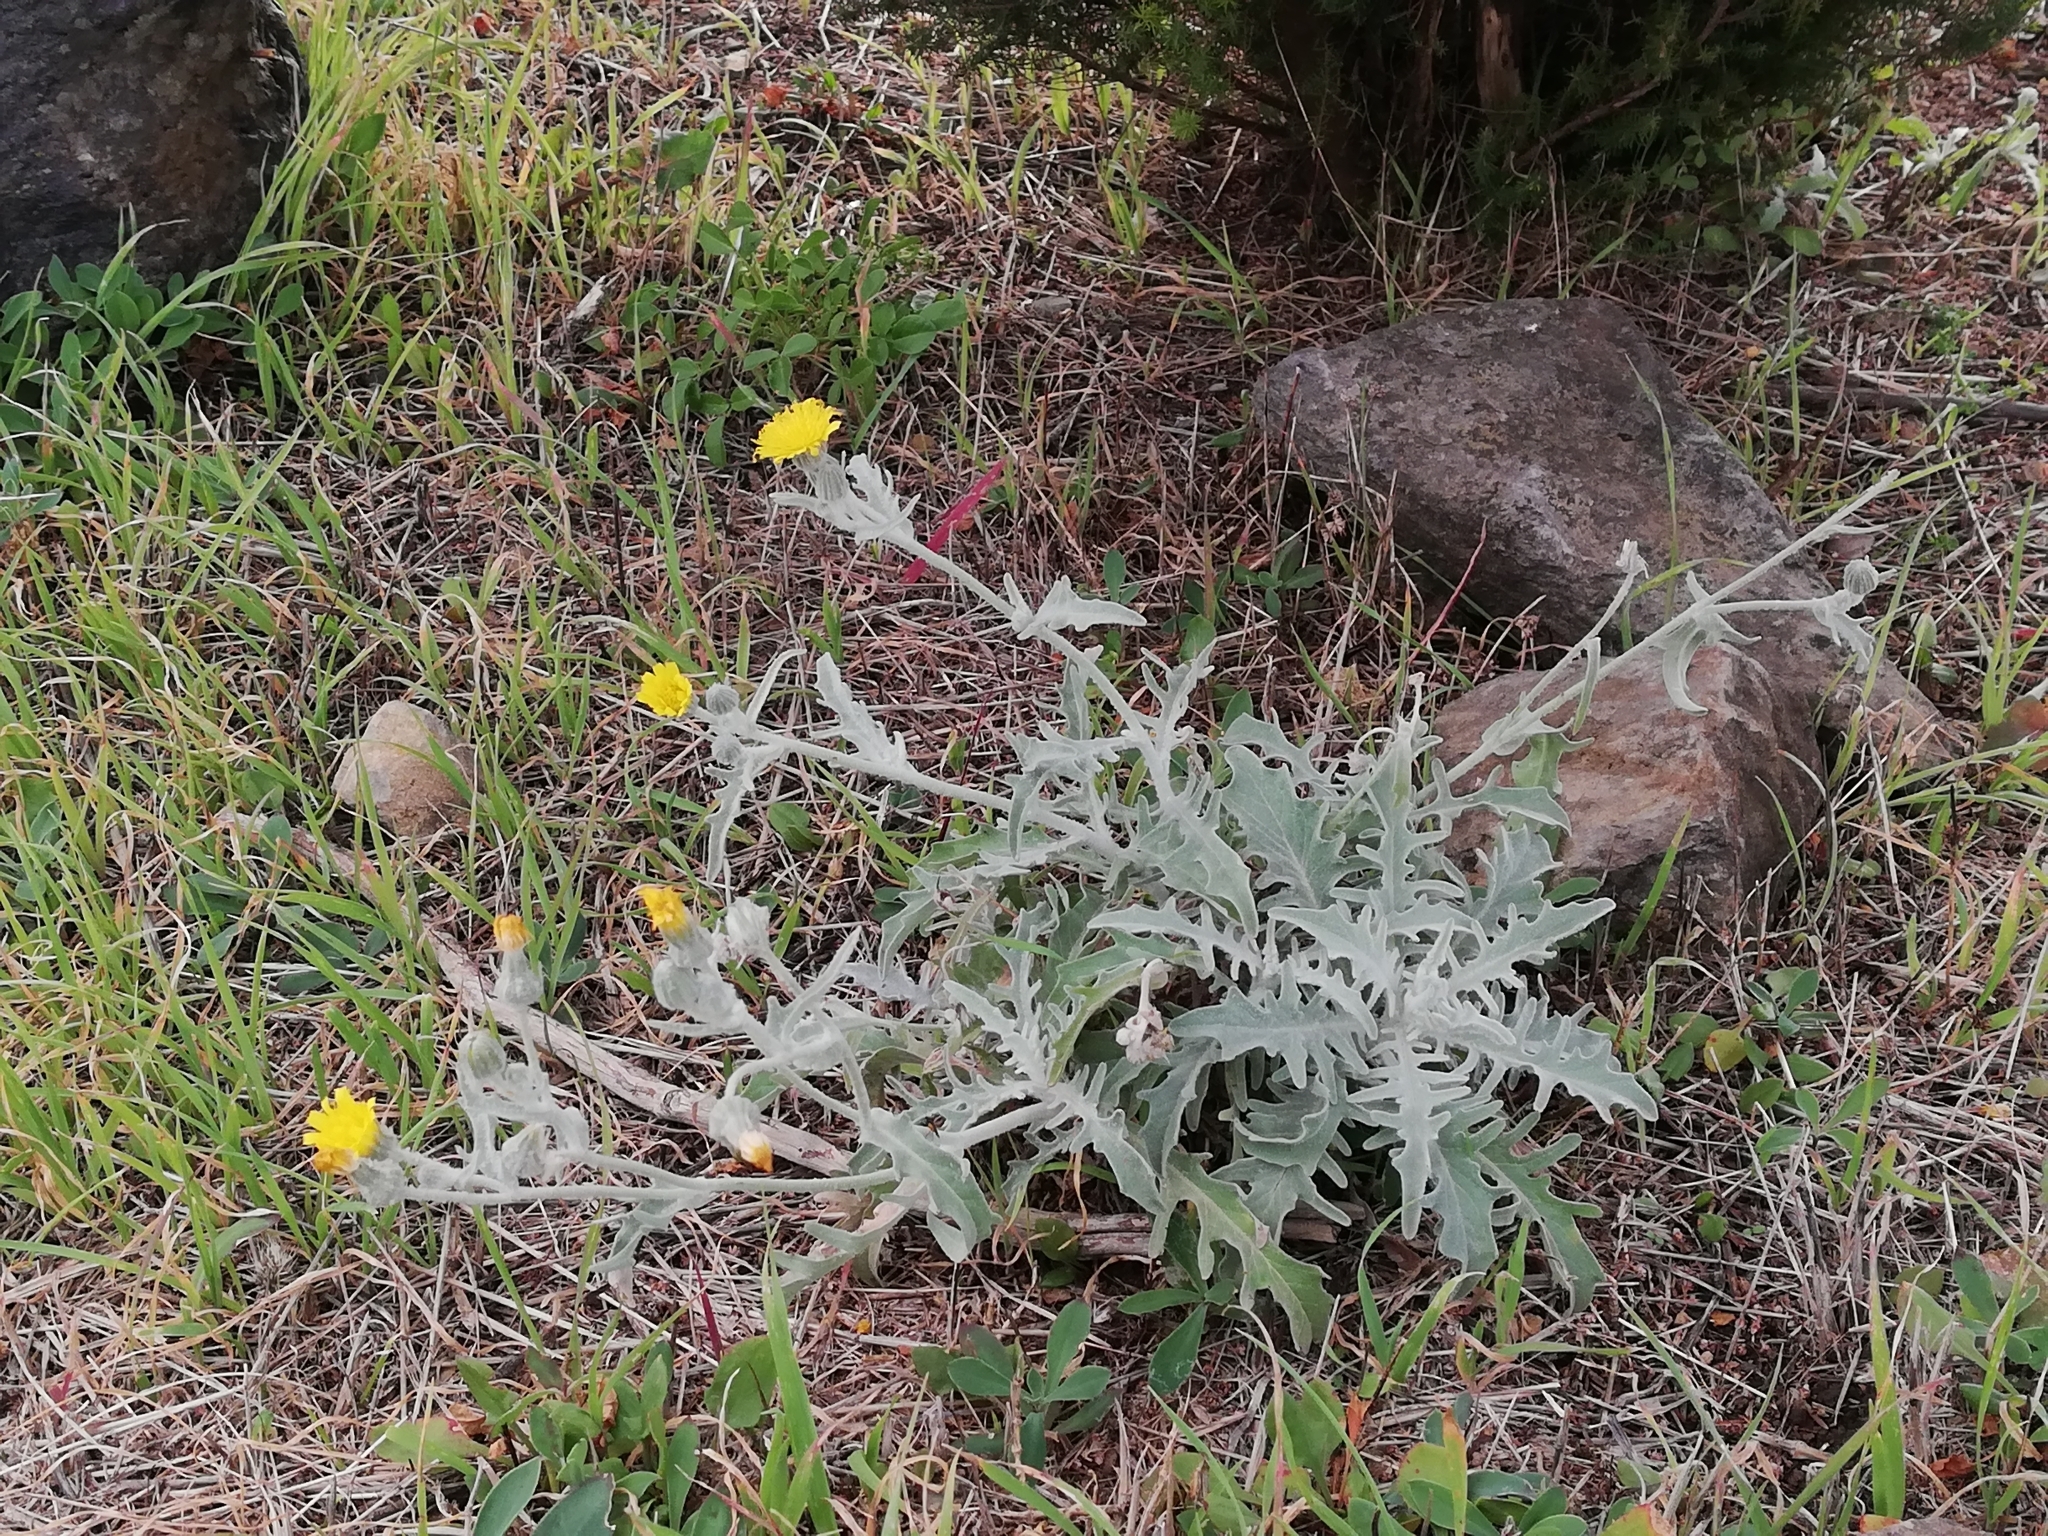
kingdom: Plantae
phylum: Tracheophyta
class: Magnoliopsida
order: Asterales
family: Asteraceae
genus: Andryala
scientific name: Andryala pinnatifida
